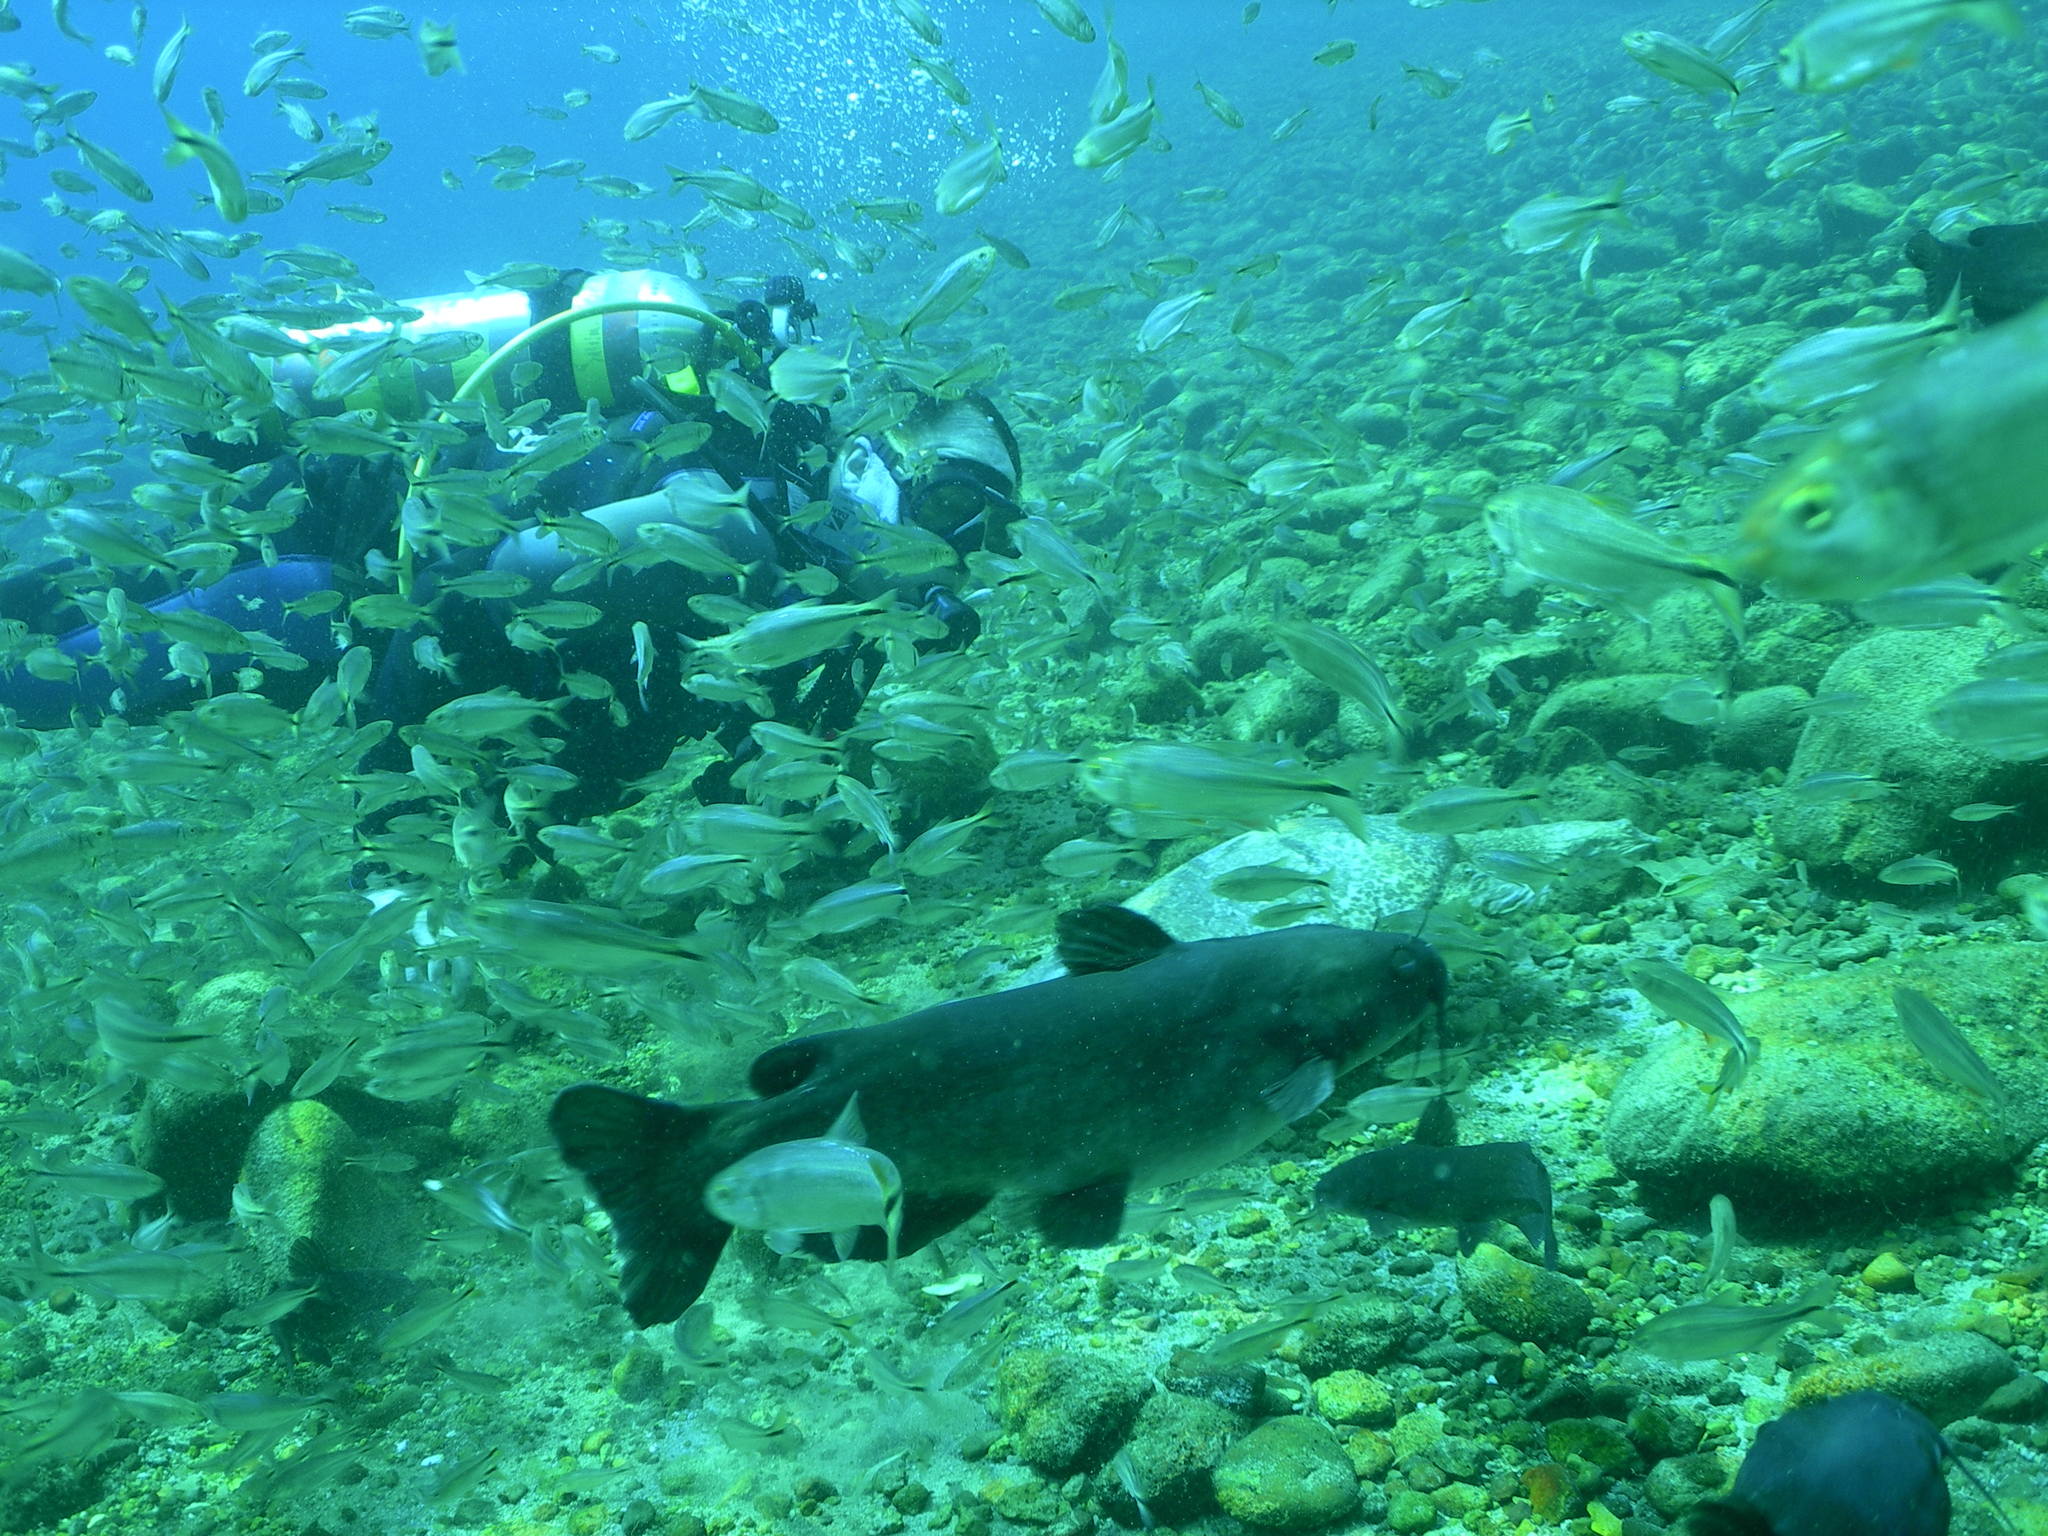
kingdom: Animalia
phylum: Chordata
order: Siluriformes
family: Ictaluridae
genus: Ictalurus
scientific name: Ictalurus punctatus
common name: Channel catfish
